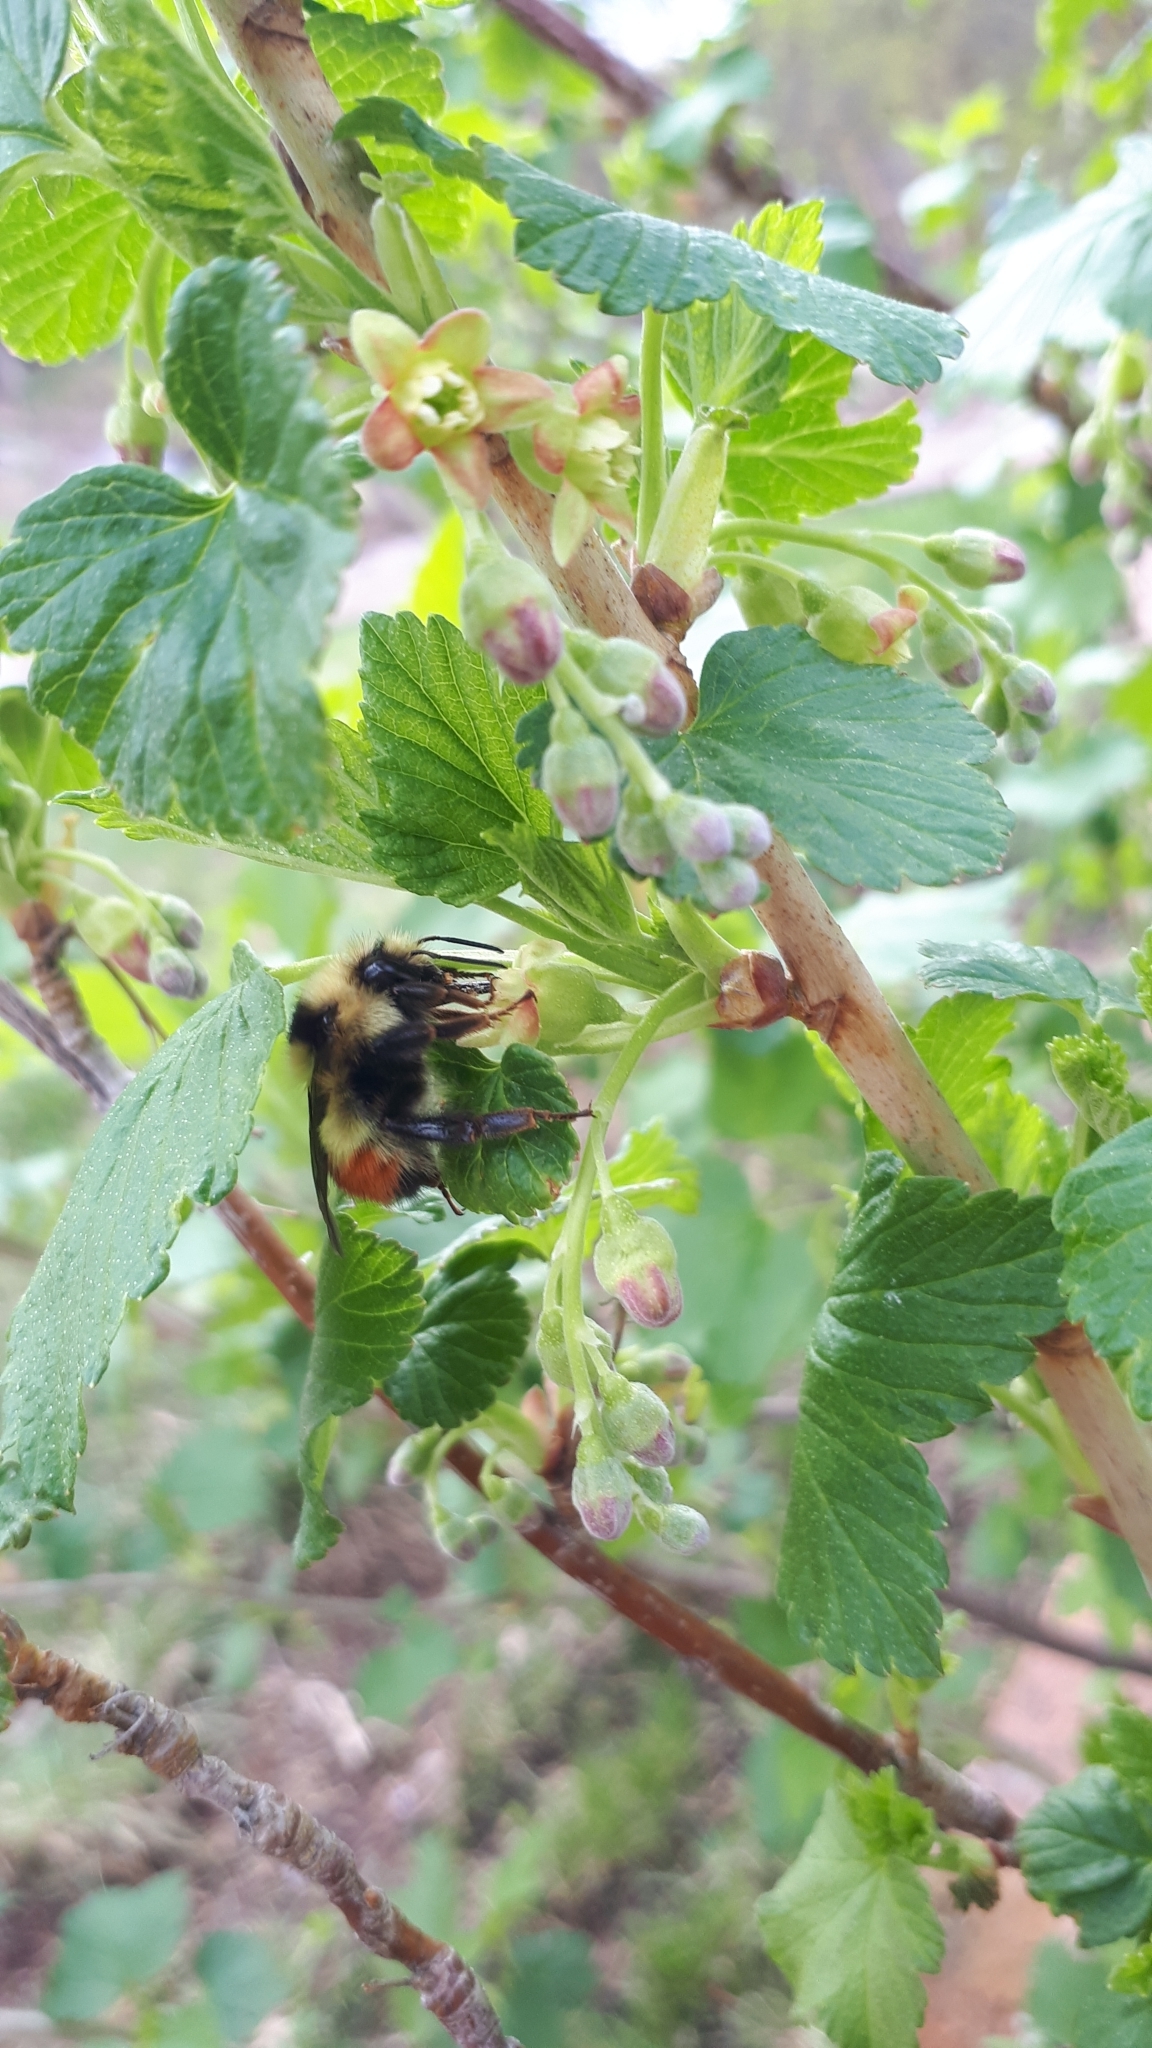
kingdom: Animalia
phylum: Arthropoda
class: Insecta
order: Hymenoptera
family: Apidae
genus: Bombus
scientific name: Bombus centralis
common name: Central bumble bee
